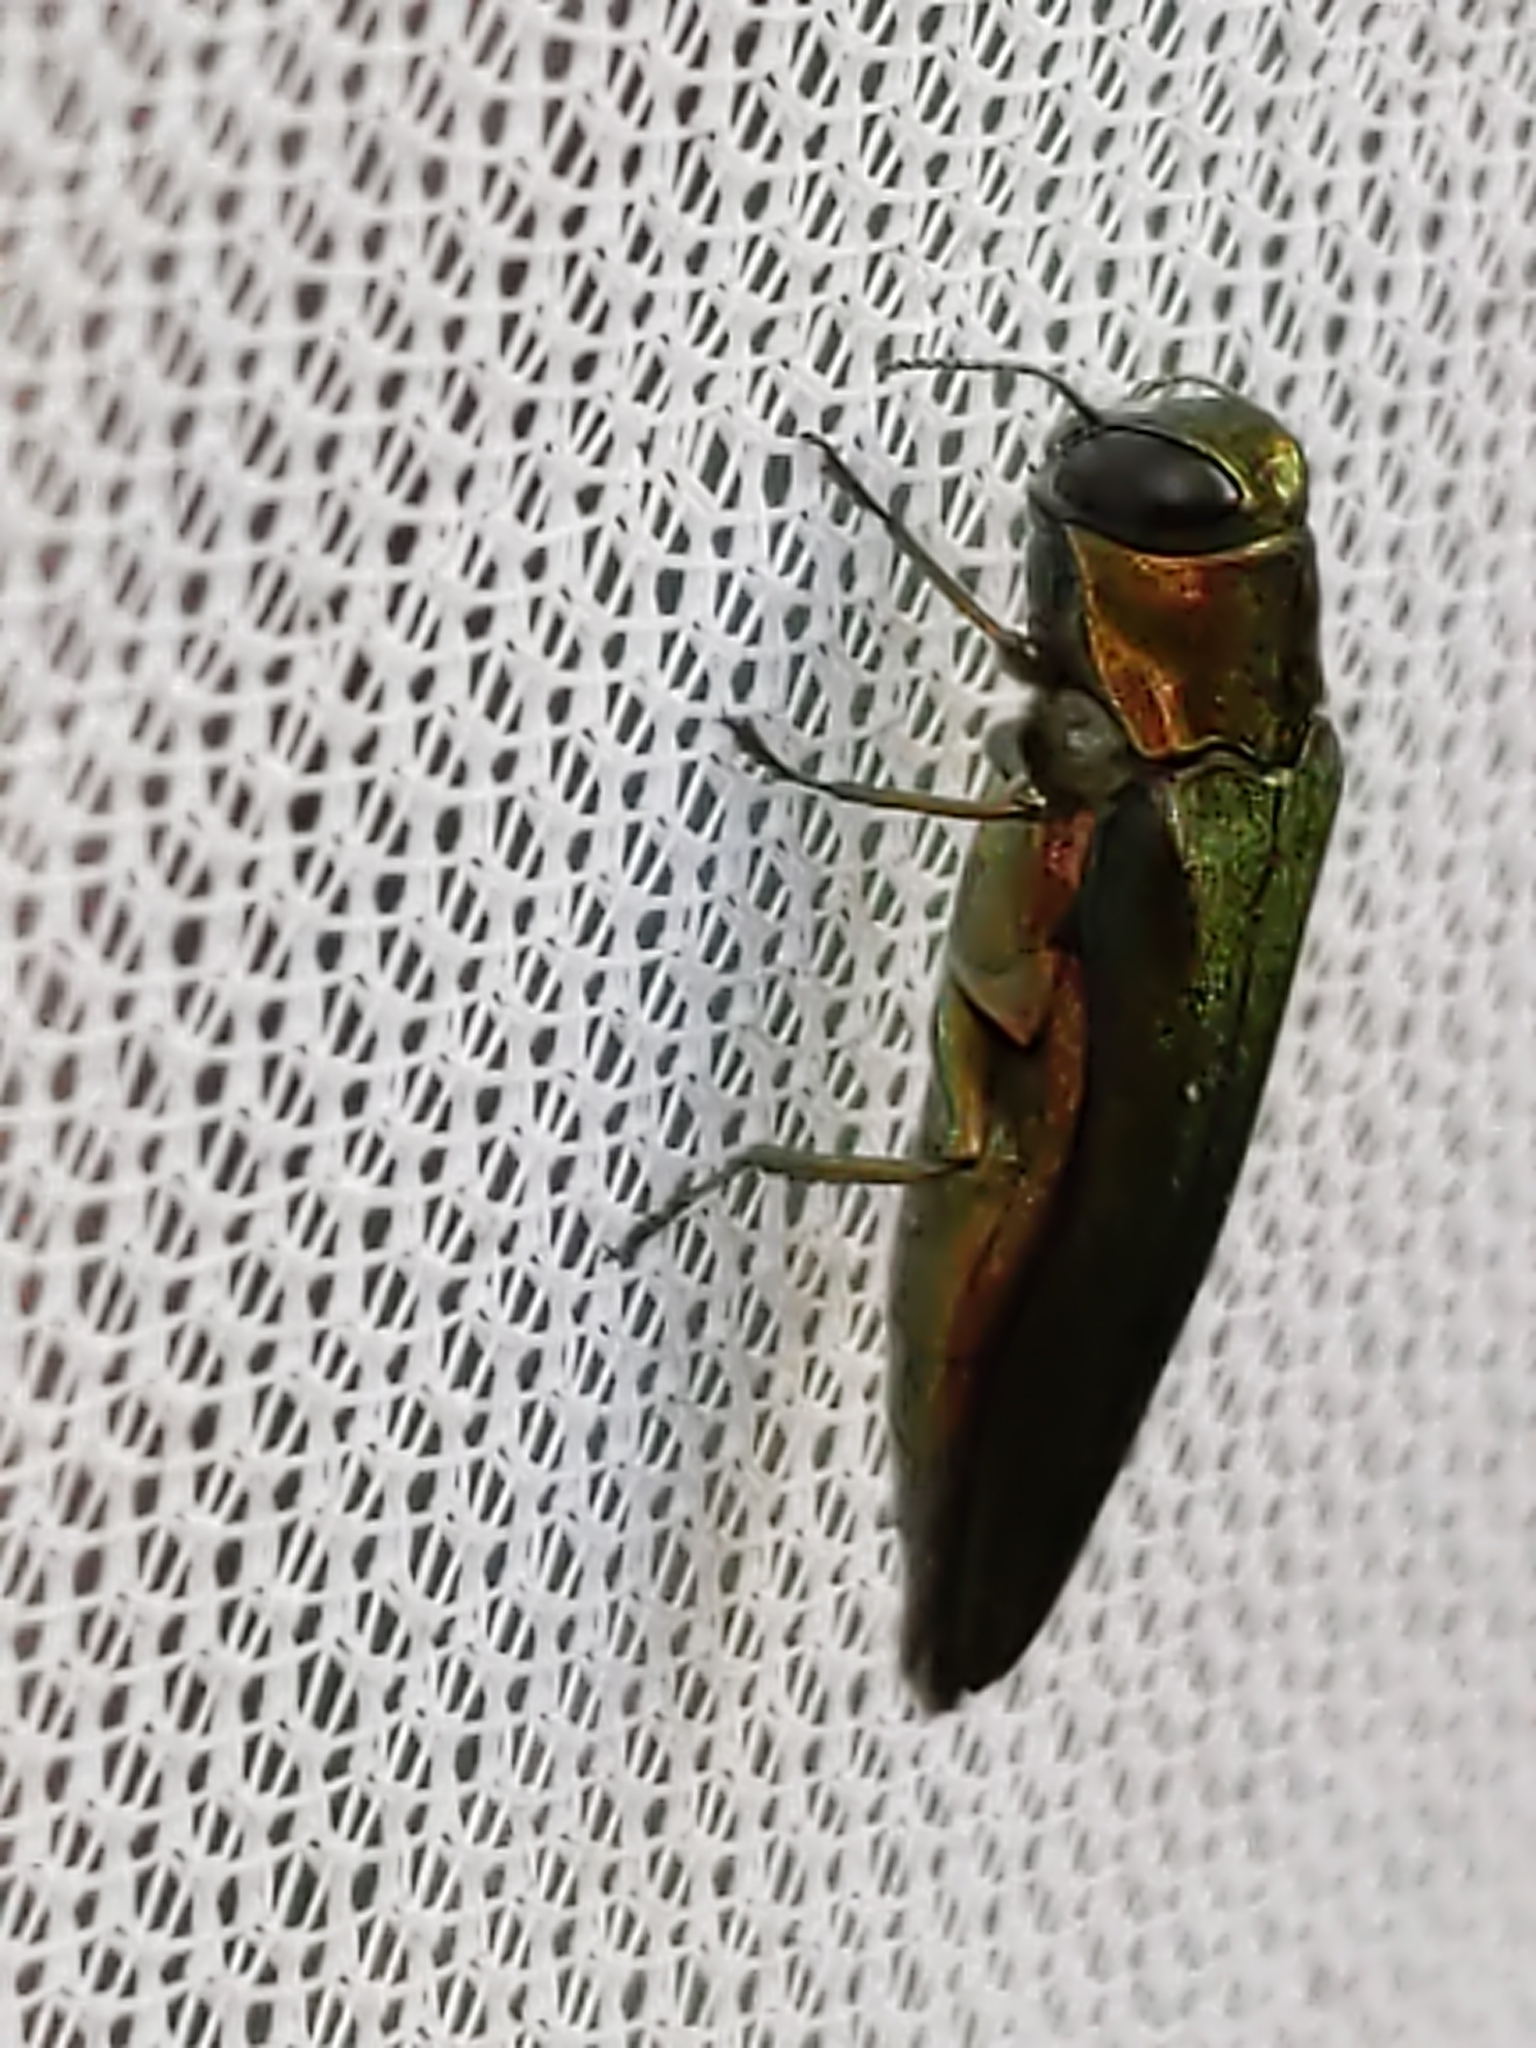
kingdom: Animalia
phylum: Arthropoda
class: Insecta
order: Coleoptera
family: Buprestidae
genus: Agrilus
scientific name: Agrilus planipennis
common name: Emerald ash borer
